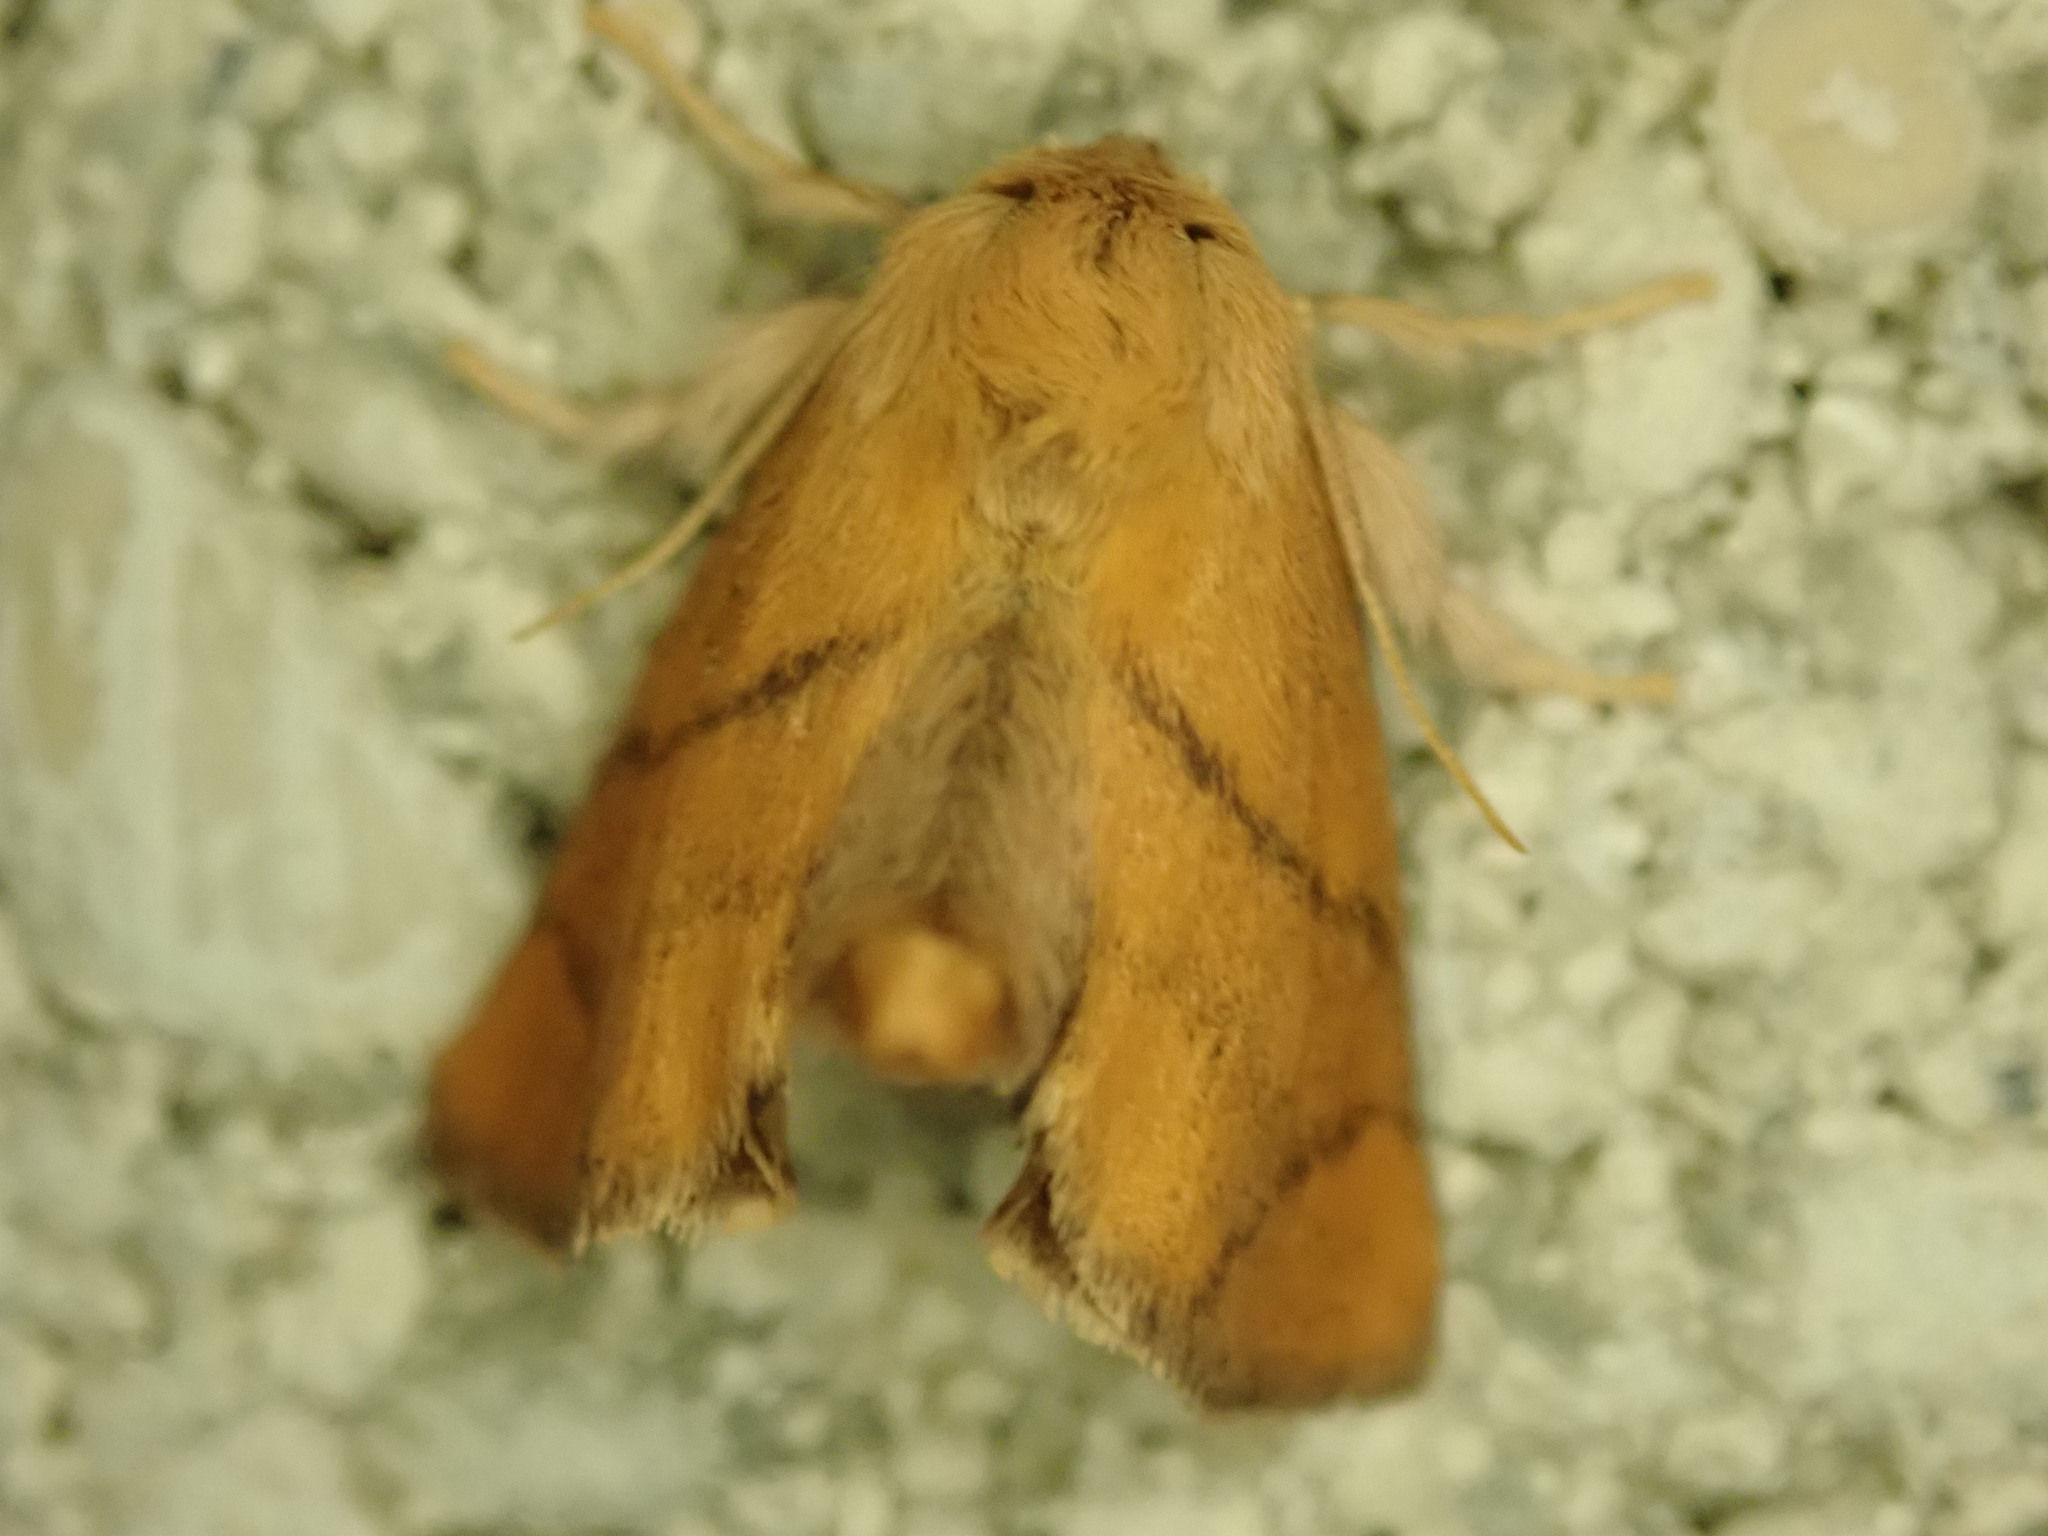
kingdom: Animalia
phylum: Arthropoda
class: Insecta
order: Lepidoptera
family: Limacodidae
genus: Apoda
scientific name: Apoda limacodes
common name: Festoon
